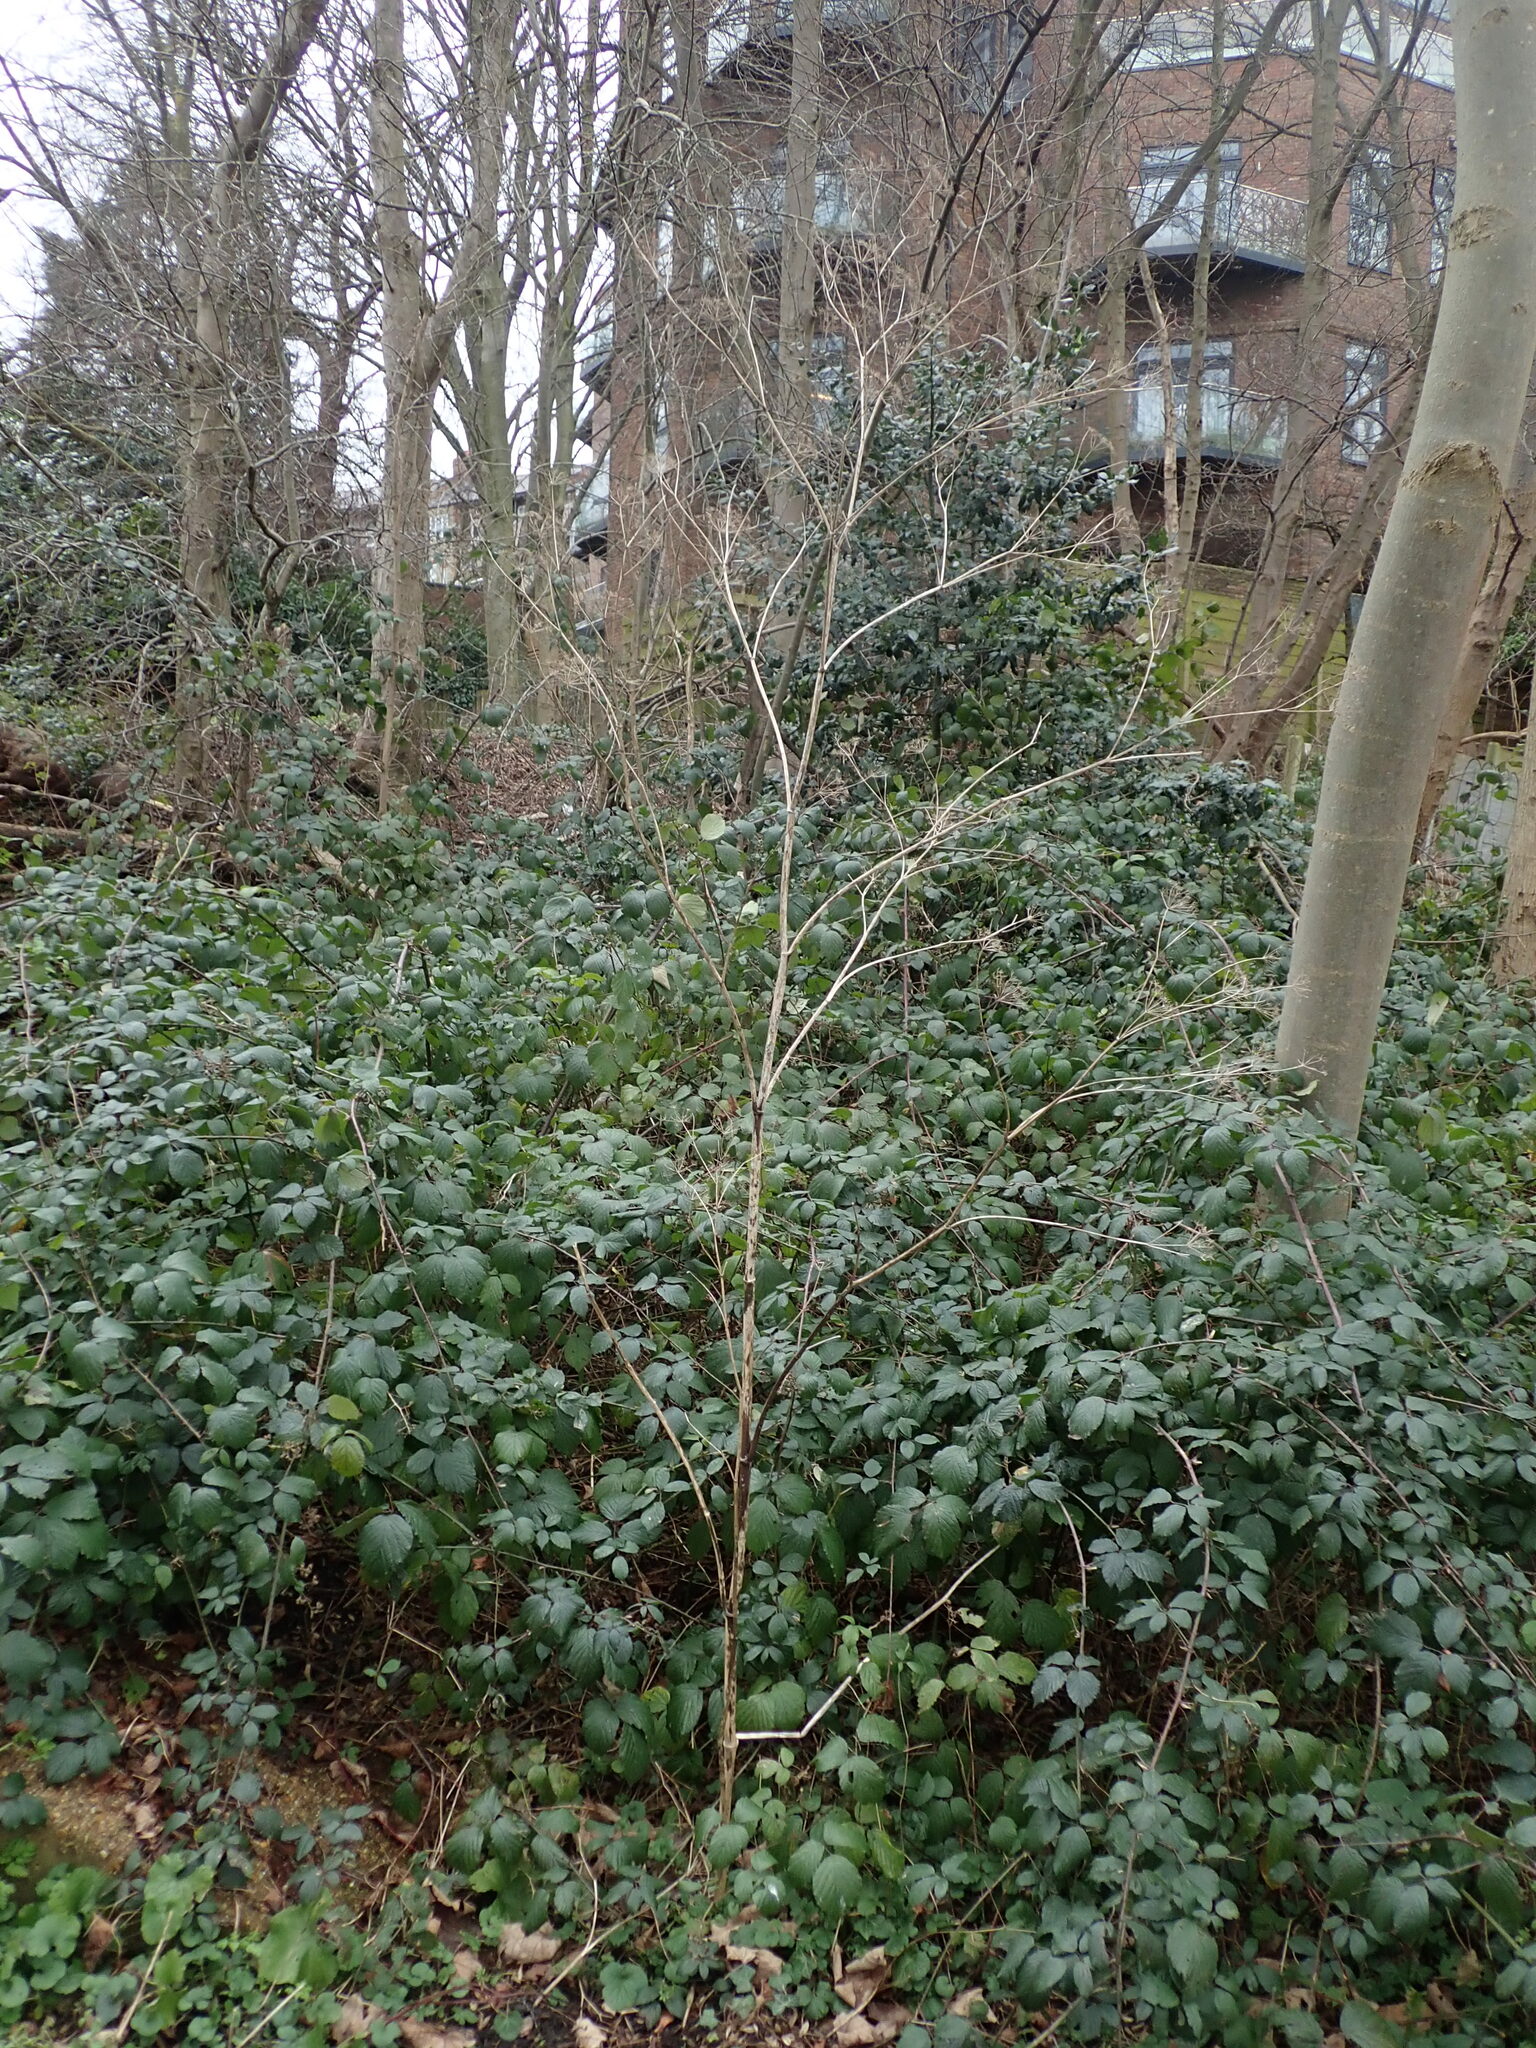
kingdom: Plantae
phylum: Tracheophyta
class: Magnoliopsida
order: Apiales
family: Apiaceae
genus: Conium
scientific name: Conium maculatum
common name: Hemlock
